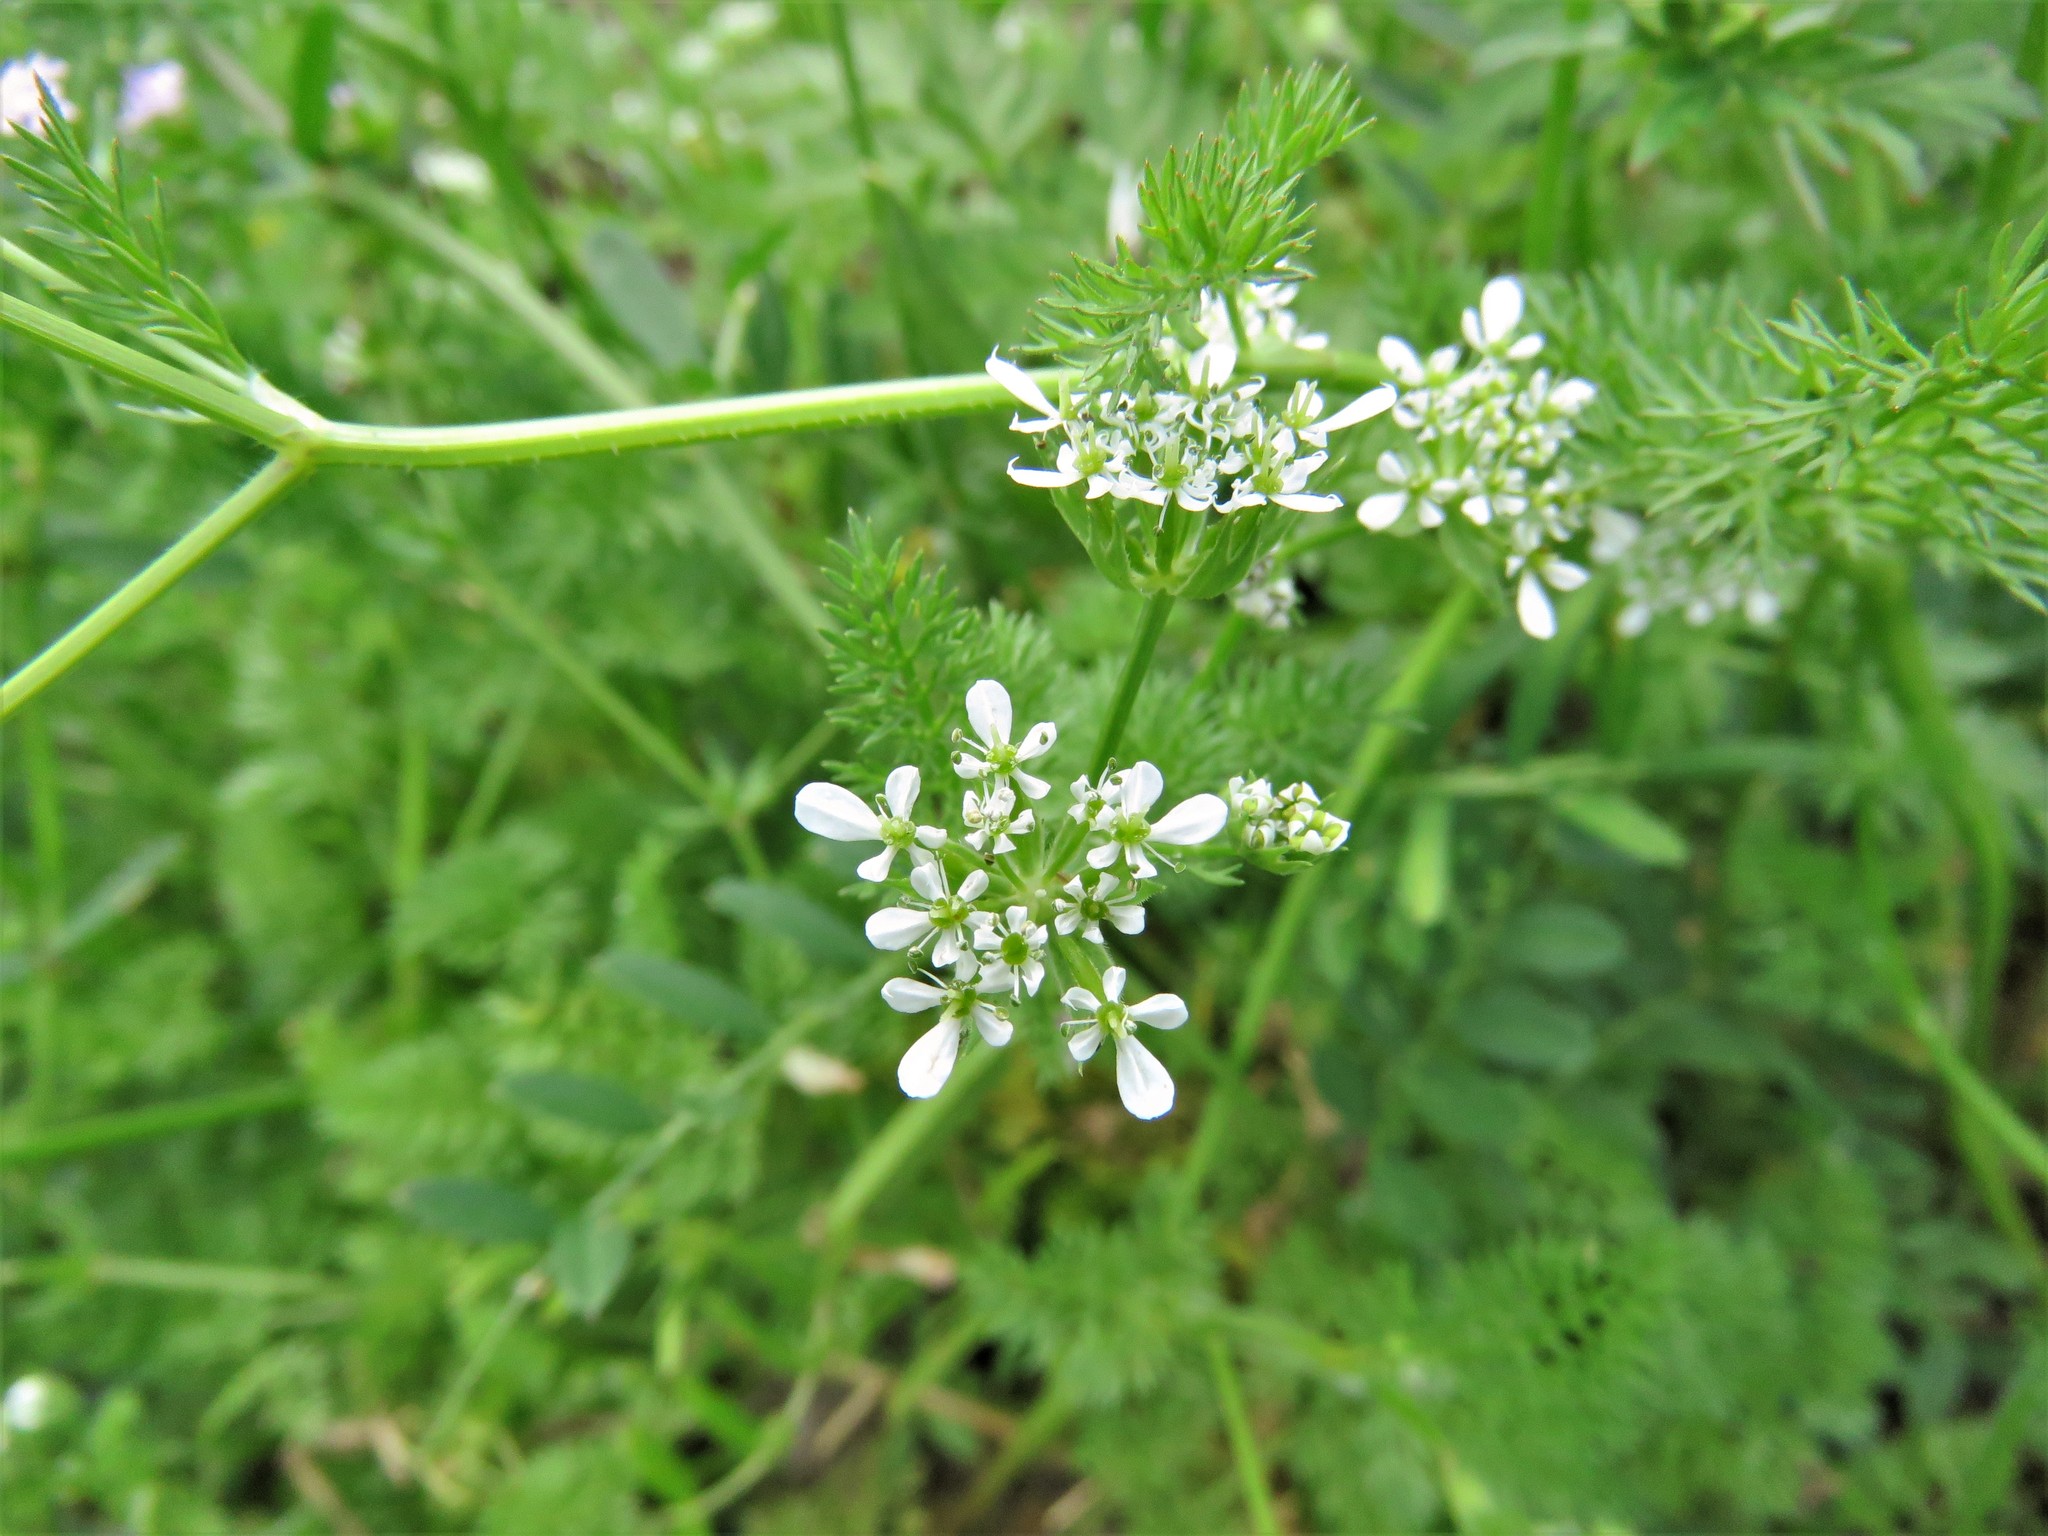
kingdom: Plantae
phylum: Tracheophyta
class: Magnoliopsida
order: Apiales
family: Apiaceae
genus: Scandix
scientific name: Scandix pecten-veneris
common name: Shepherd's-needle
